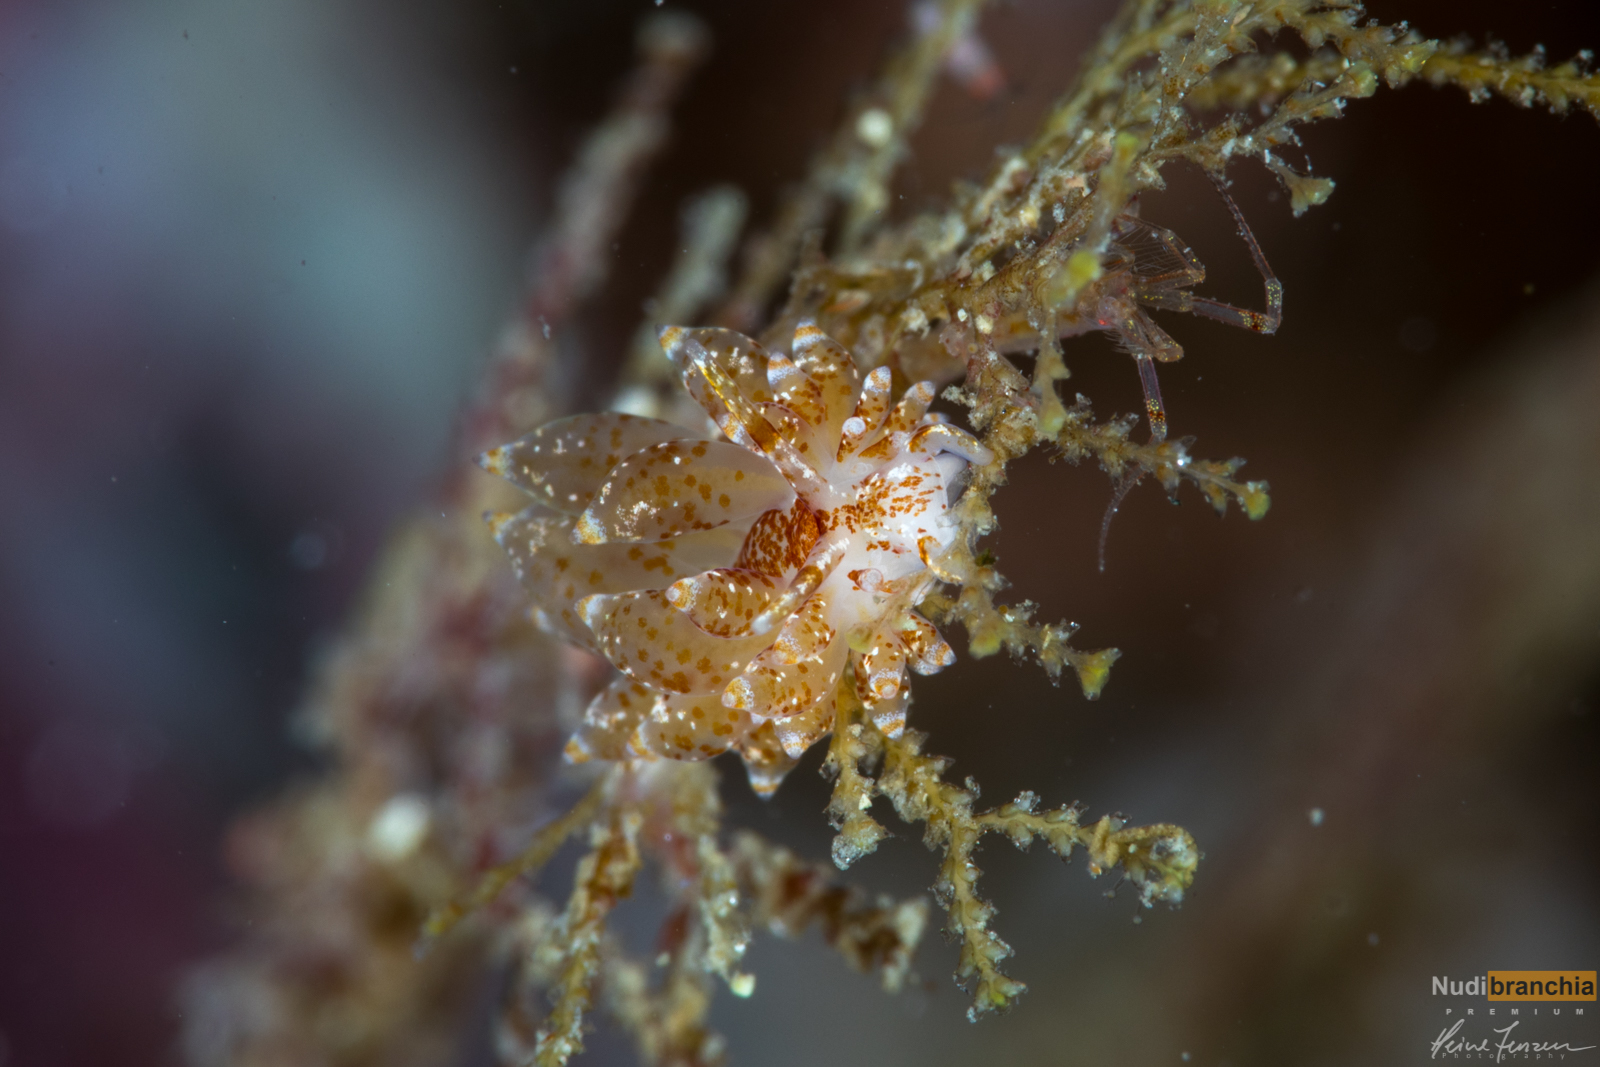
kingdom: Animalia
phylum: Mollusca
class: Gastropoda
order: Nudibranchia
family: Eubranchidae
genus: Amphorina
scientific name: Amphorina pallida
